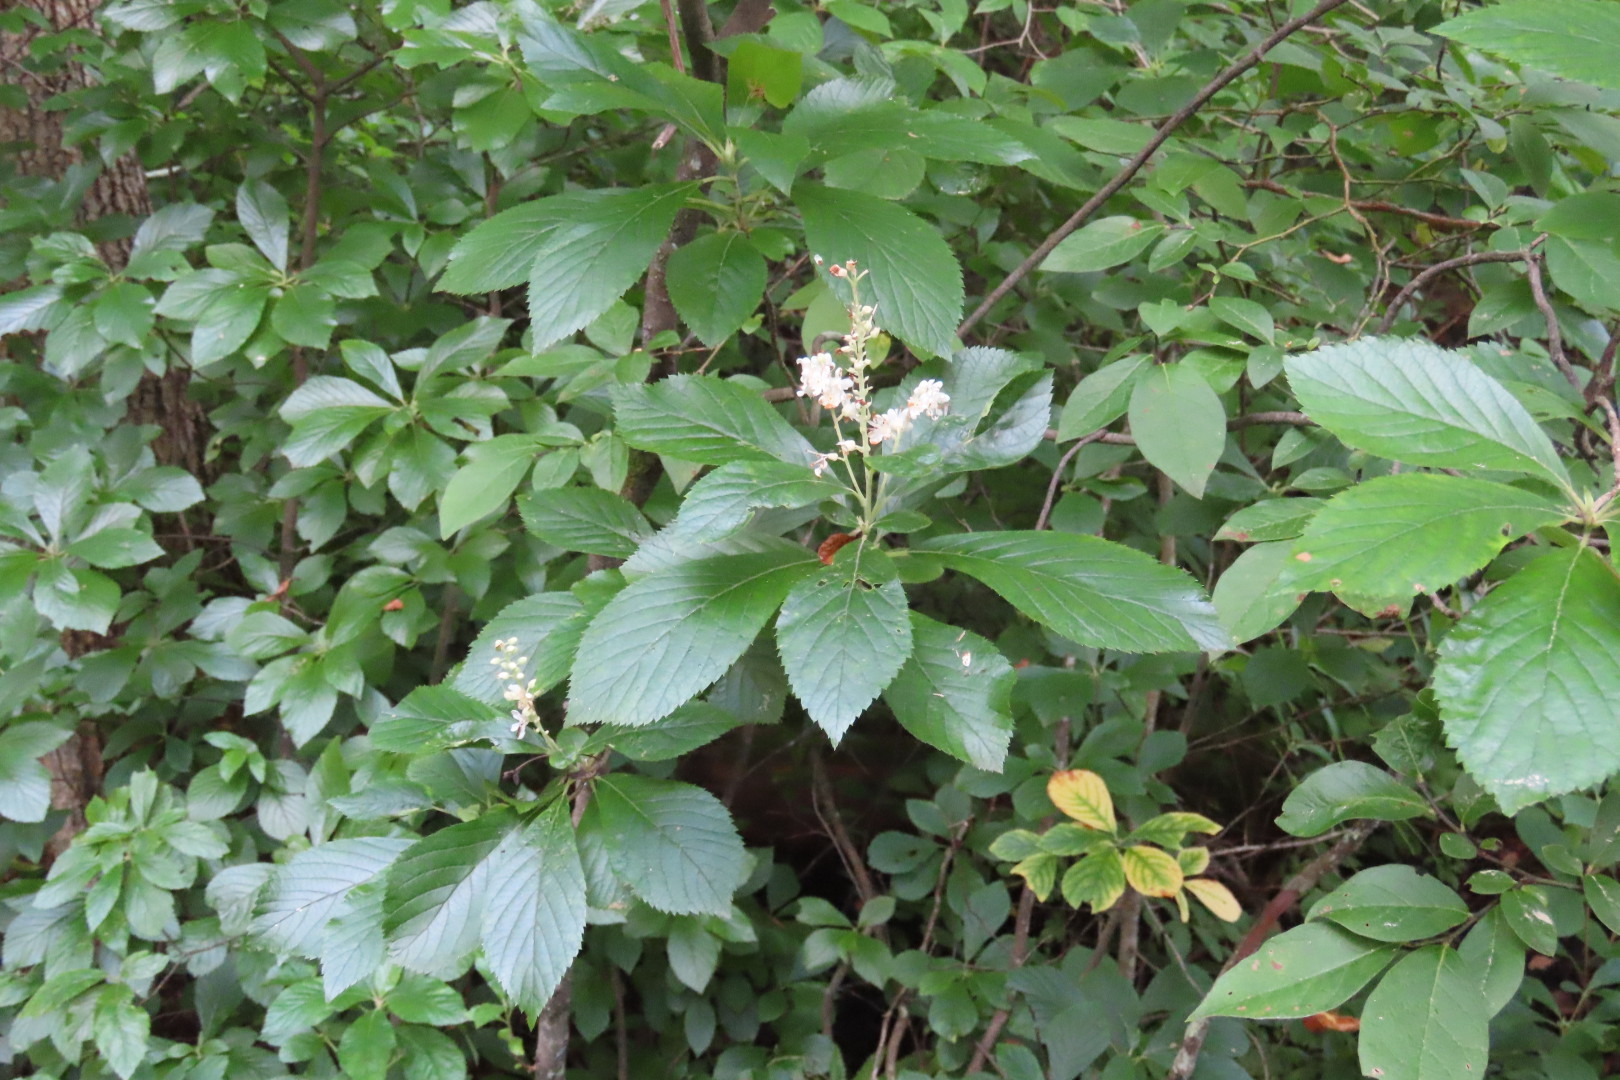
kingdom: Plantae
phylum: Tracheophyta
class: Magnoliopsida
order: Ericales
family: Clethraceae
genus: Clethra
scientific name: Clethra alnifolia
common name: Sweet pepperbush
